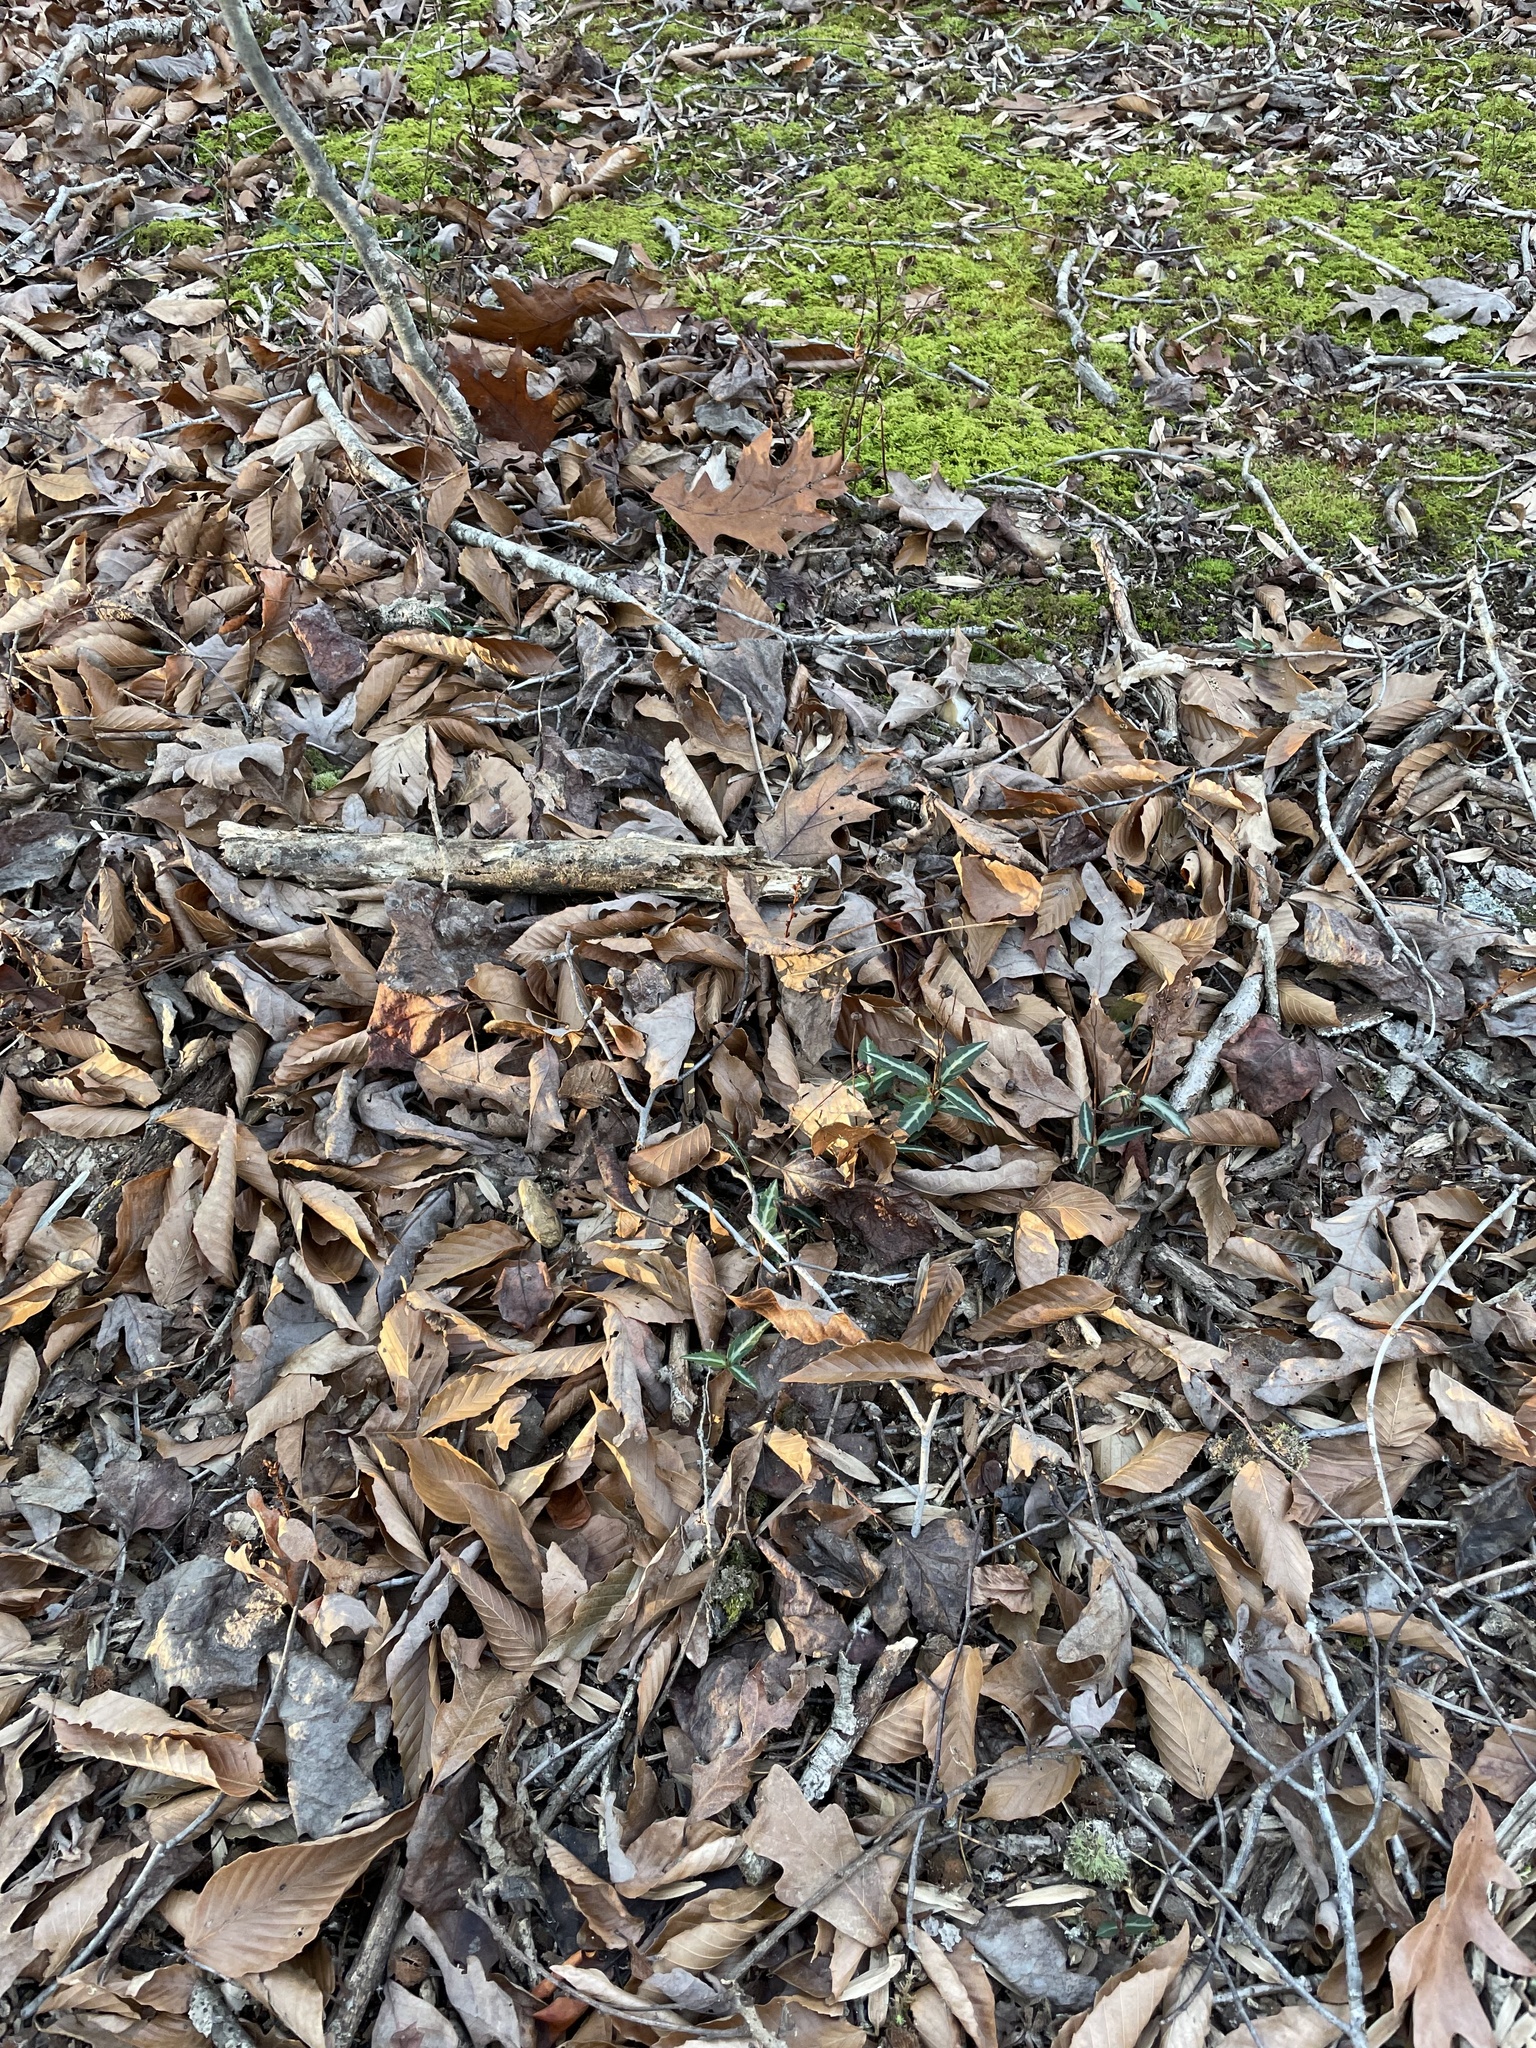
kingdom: Plantae
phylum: Tracheophyta
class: Magnoliopsida
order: Ericales
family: Ericaceae
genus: Chimaphila
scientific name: Chimaphila maculata
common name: Spotted pipsissewa
